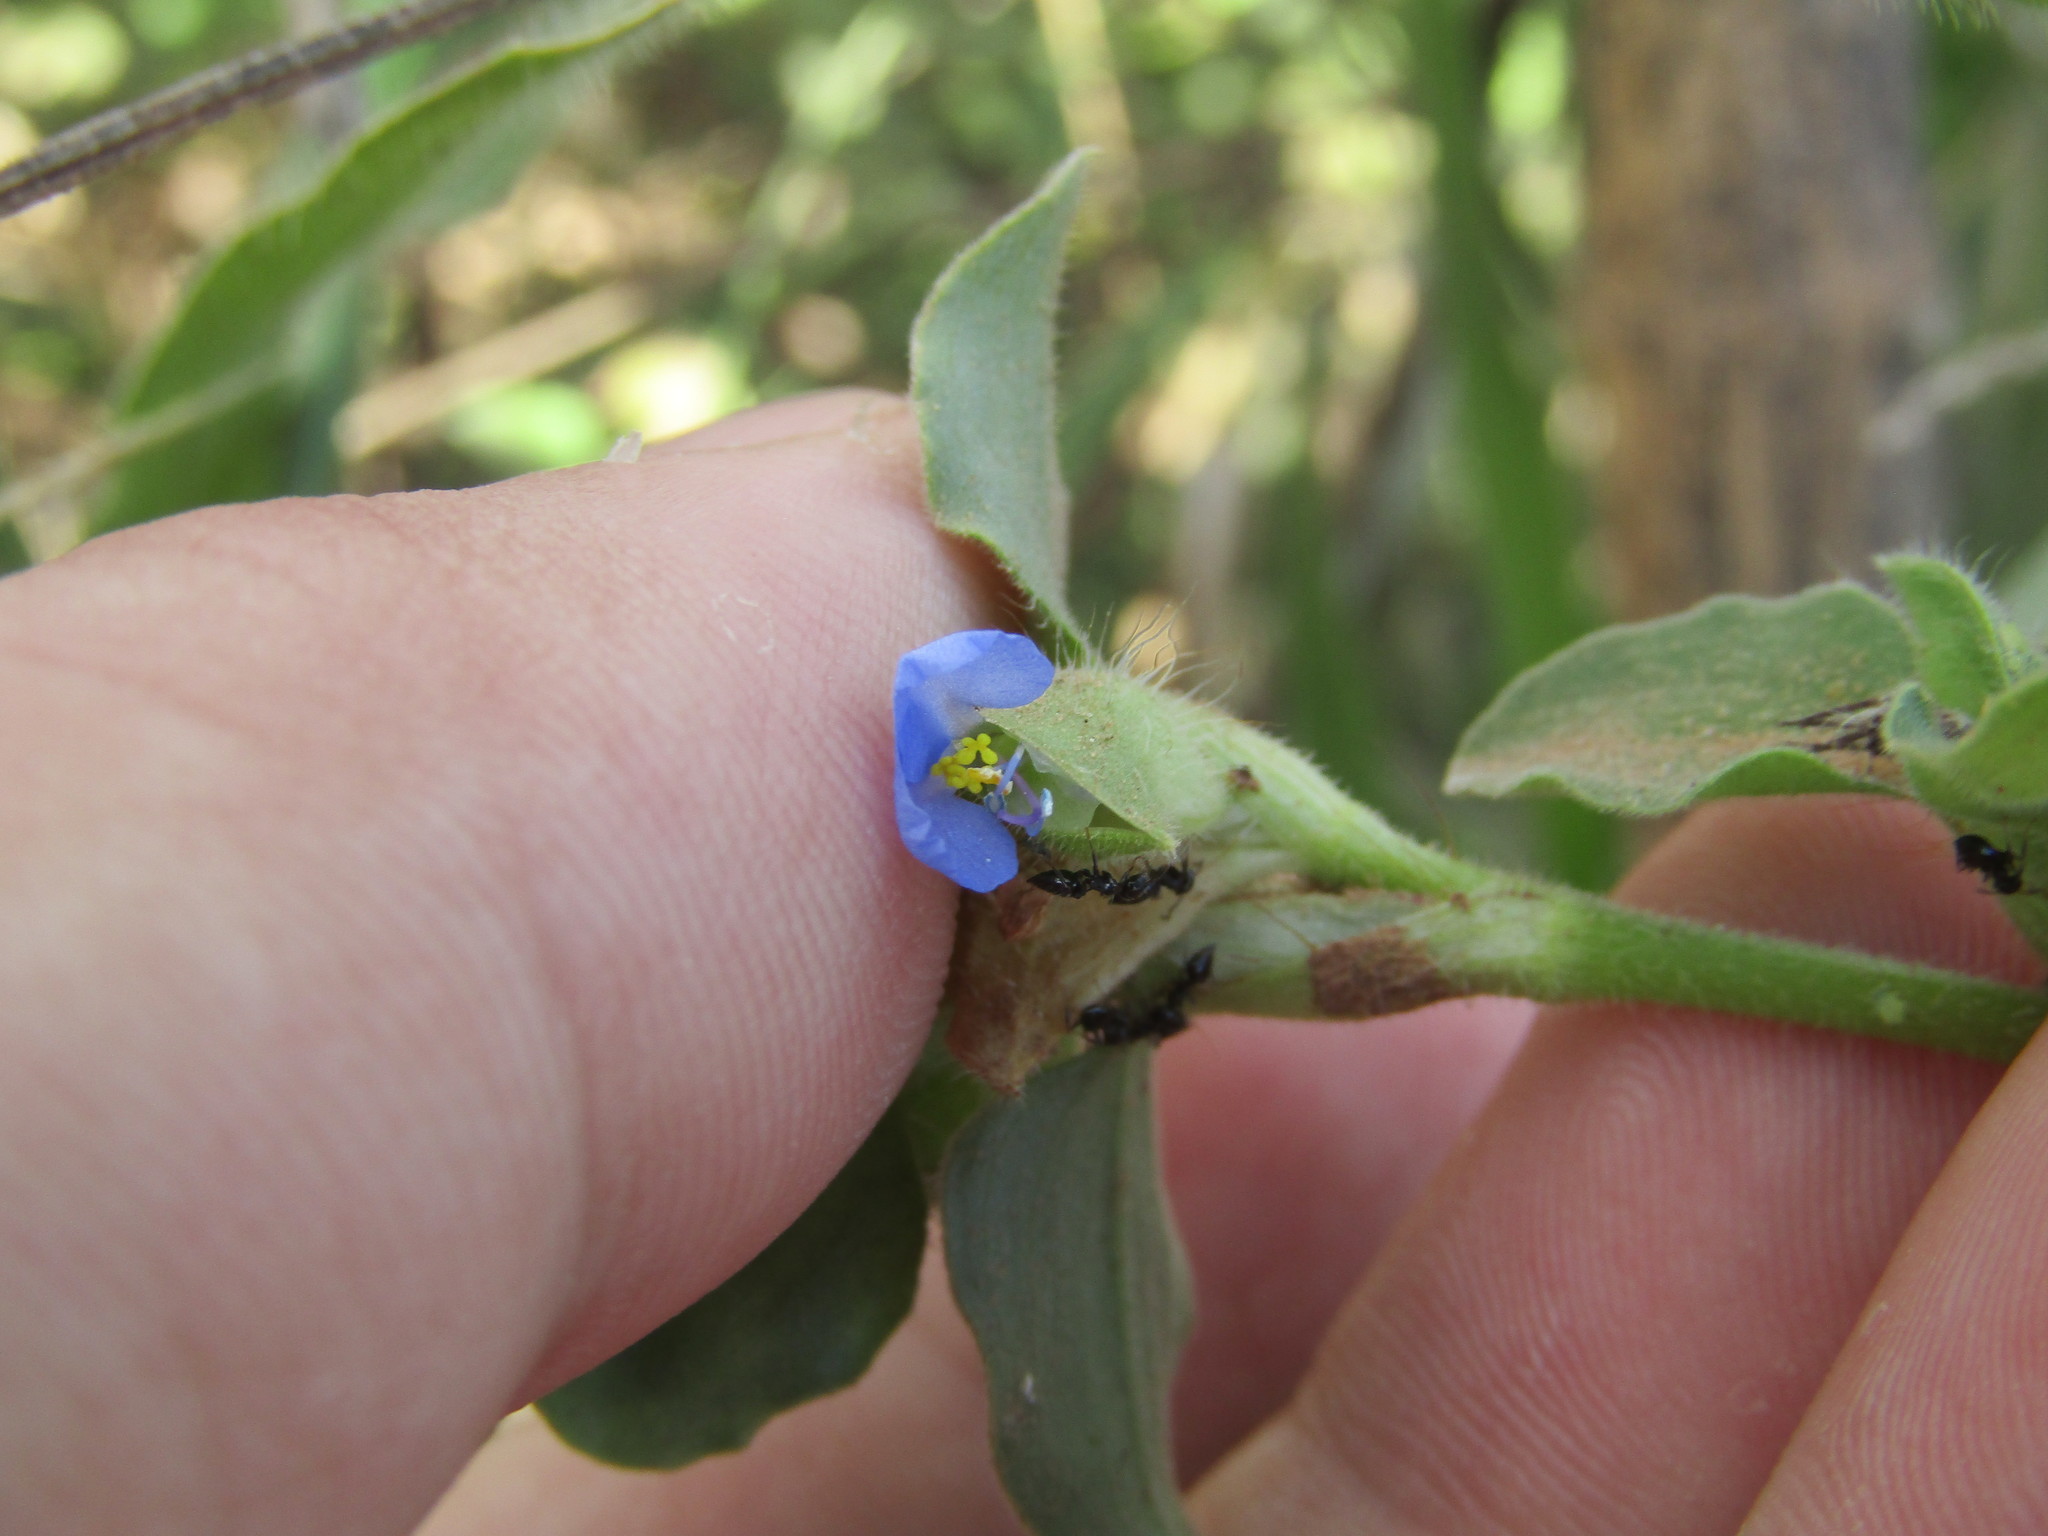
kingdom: Plantae
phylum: Tracheophyta
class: Liliopsida
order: Commelinales
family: Commelinaceae
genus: Commelina
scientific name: Commelina benghalensis
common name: Jio
